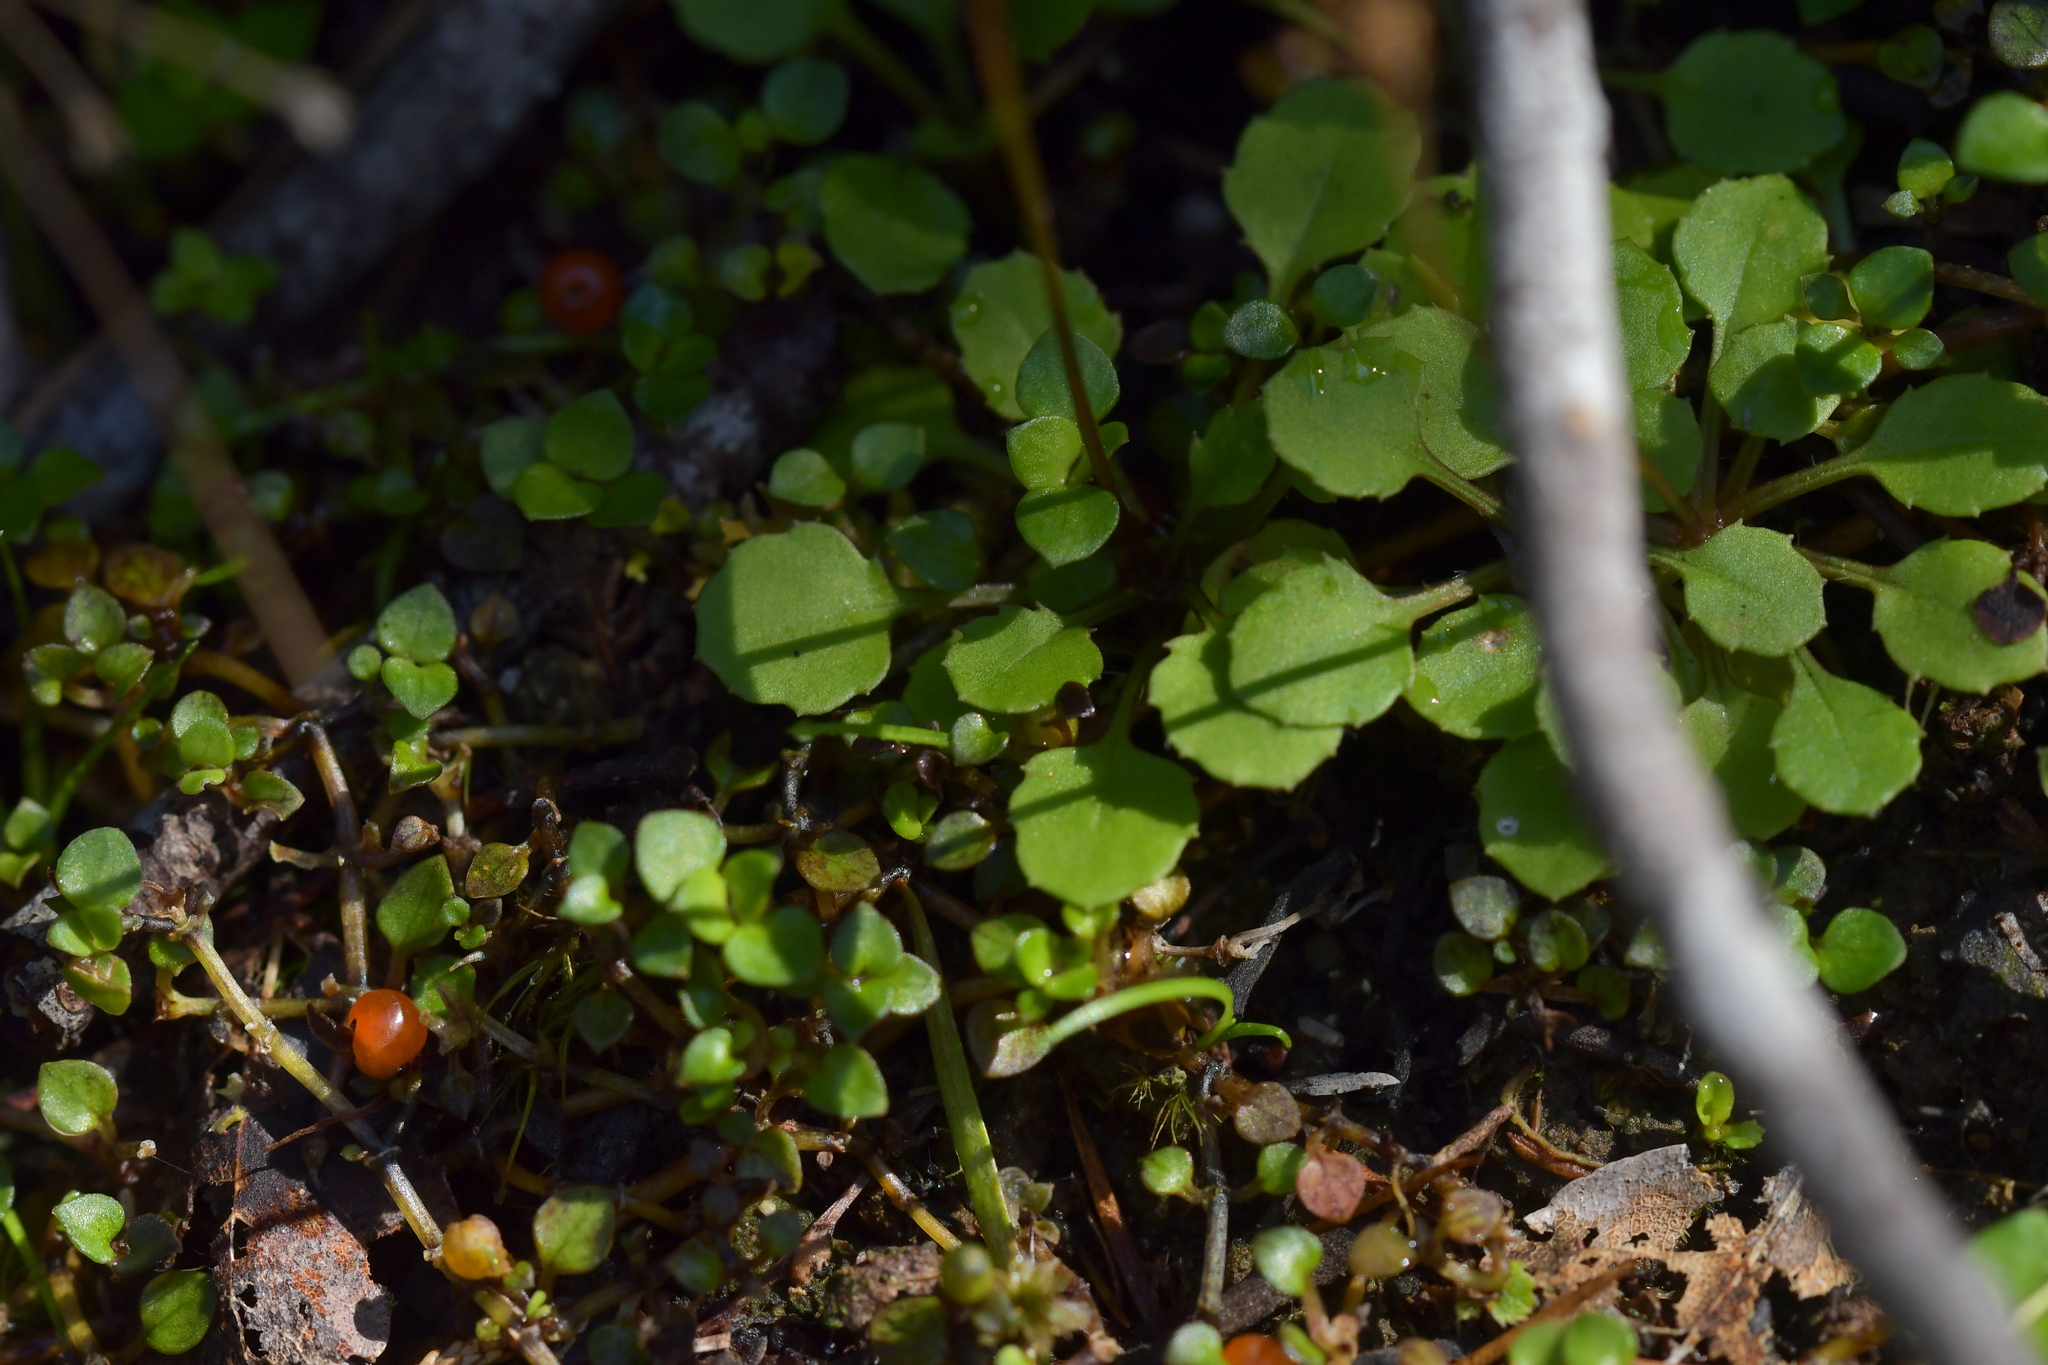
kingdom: Plantae
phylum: Tracheophyta
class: Magnoliopsida
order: Asterales
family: Asteraceae
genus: Lagenophora
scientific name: Lagenophora strangulata
